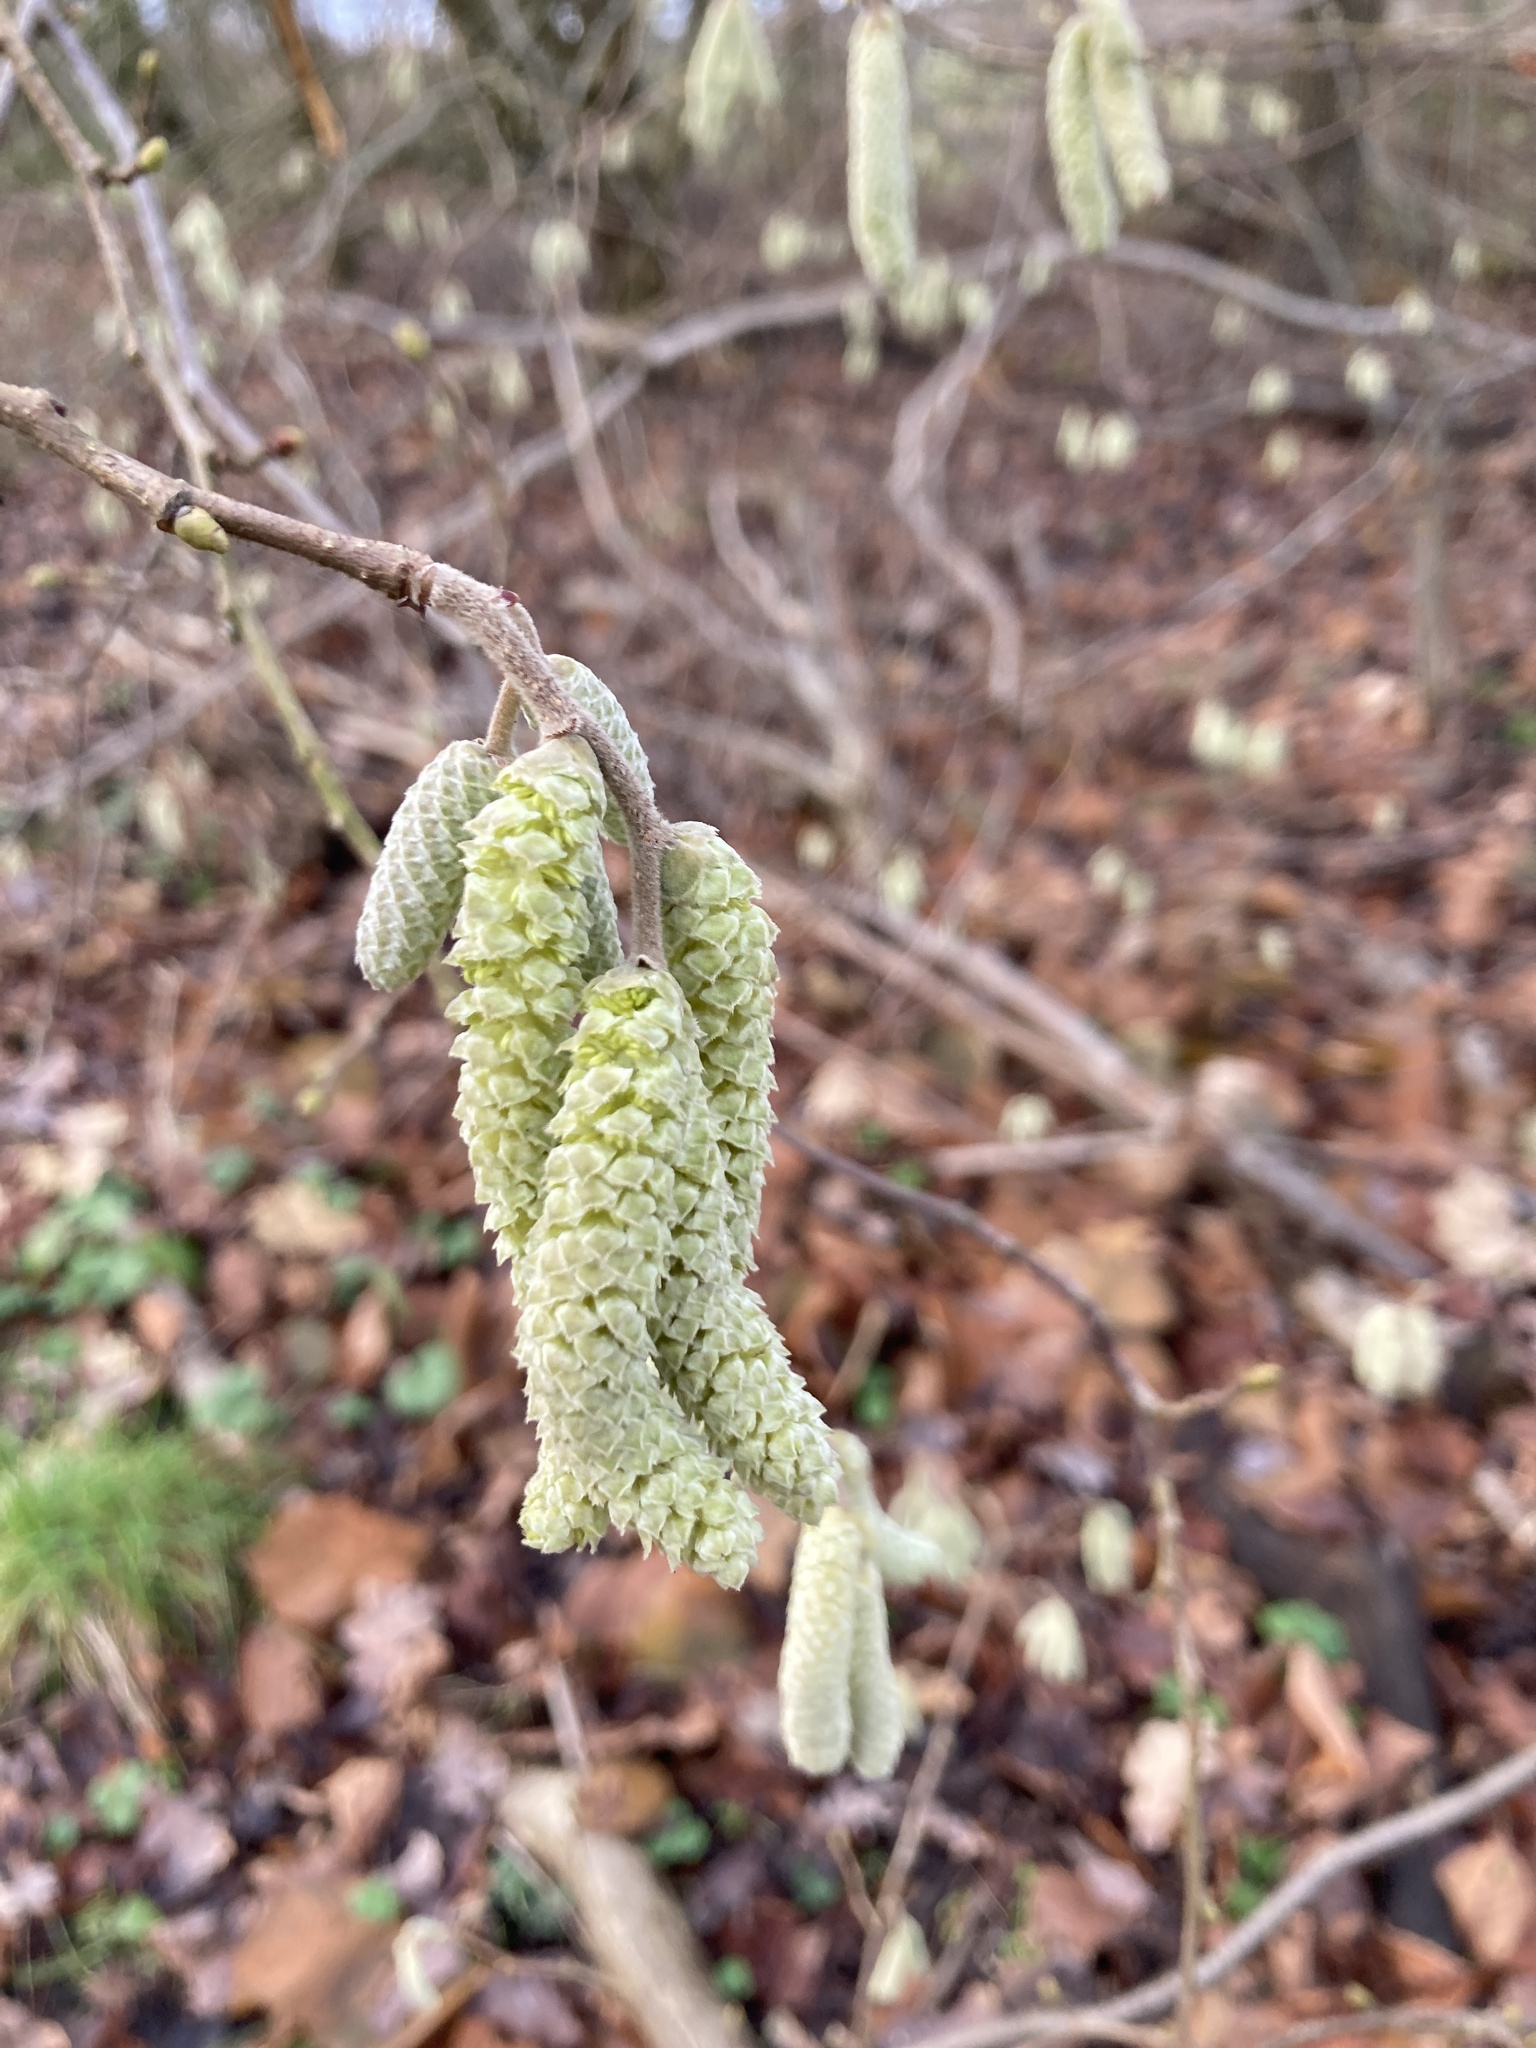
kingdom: Plantae
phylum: Tracheophyta
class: Magnoliopsida
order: Fagales
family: Betulaceae
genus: Corylus
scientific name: Corylus avellana
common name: European hazel
